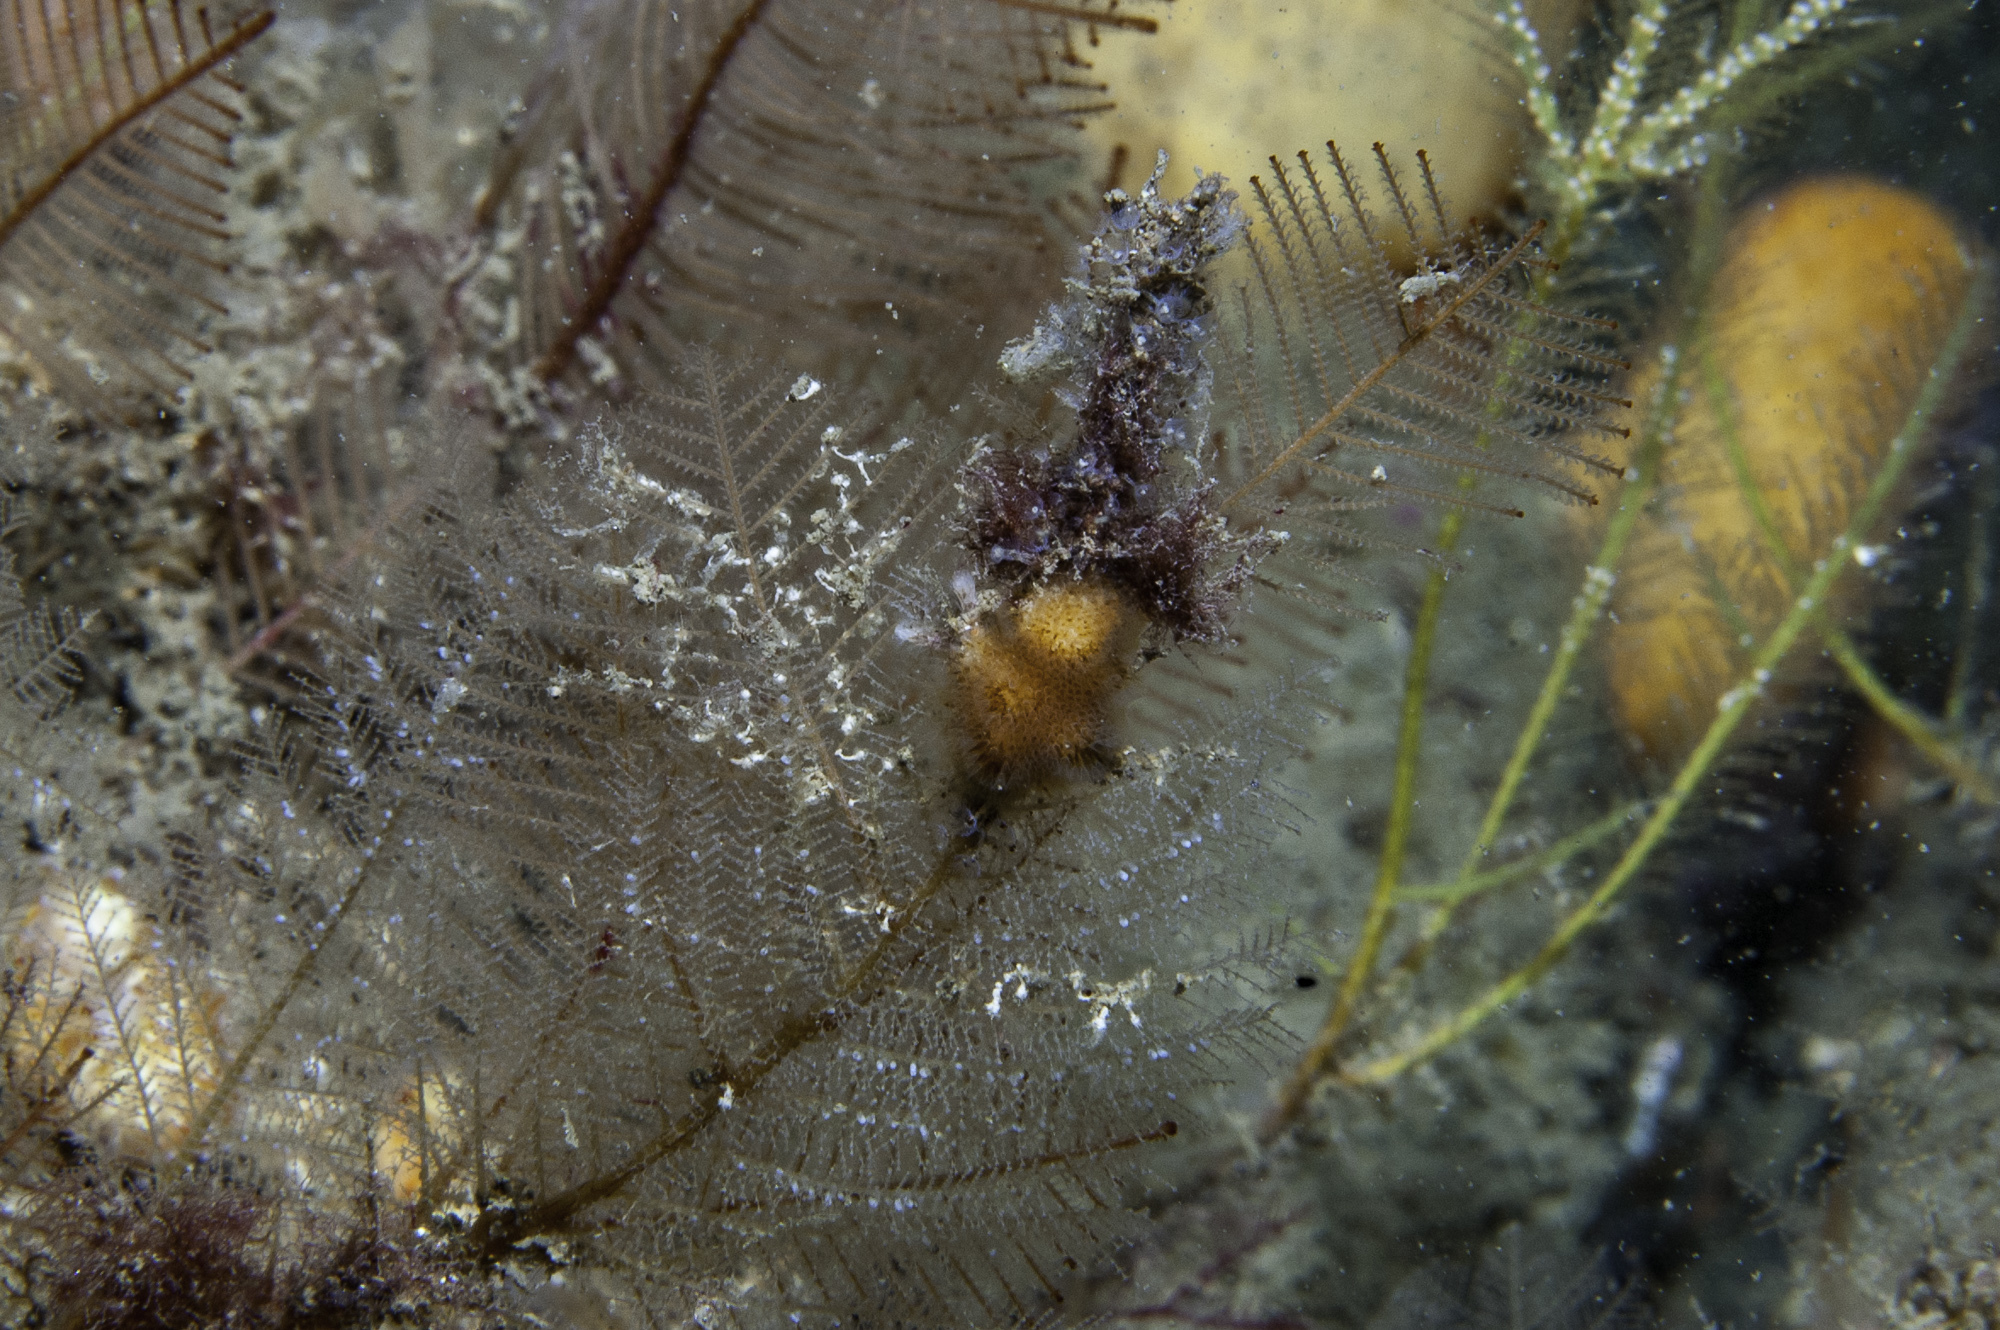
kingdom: Animalia
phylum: Bryozoa
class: Gymnolaemata
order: Cheilostomatida
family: Celleporidae
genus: Turbicellepora
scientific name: Turbicellepora avicularis
